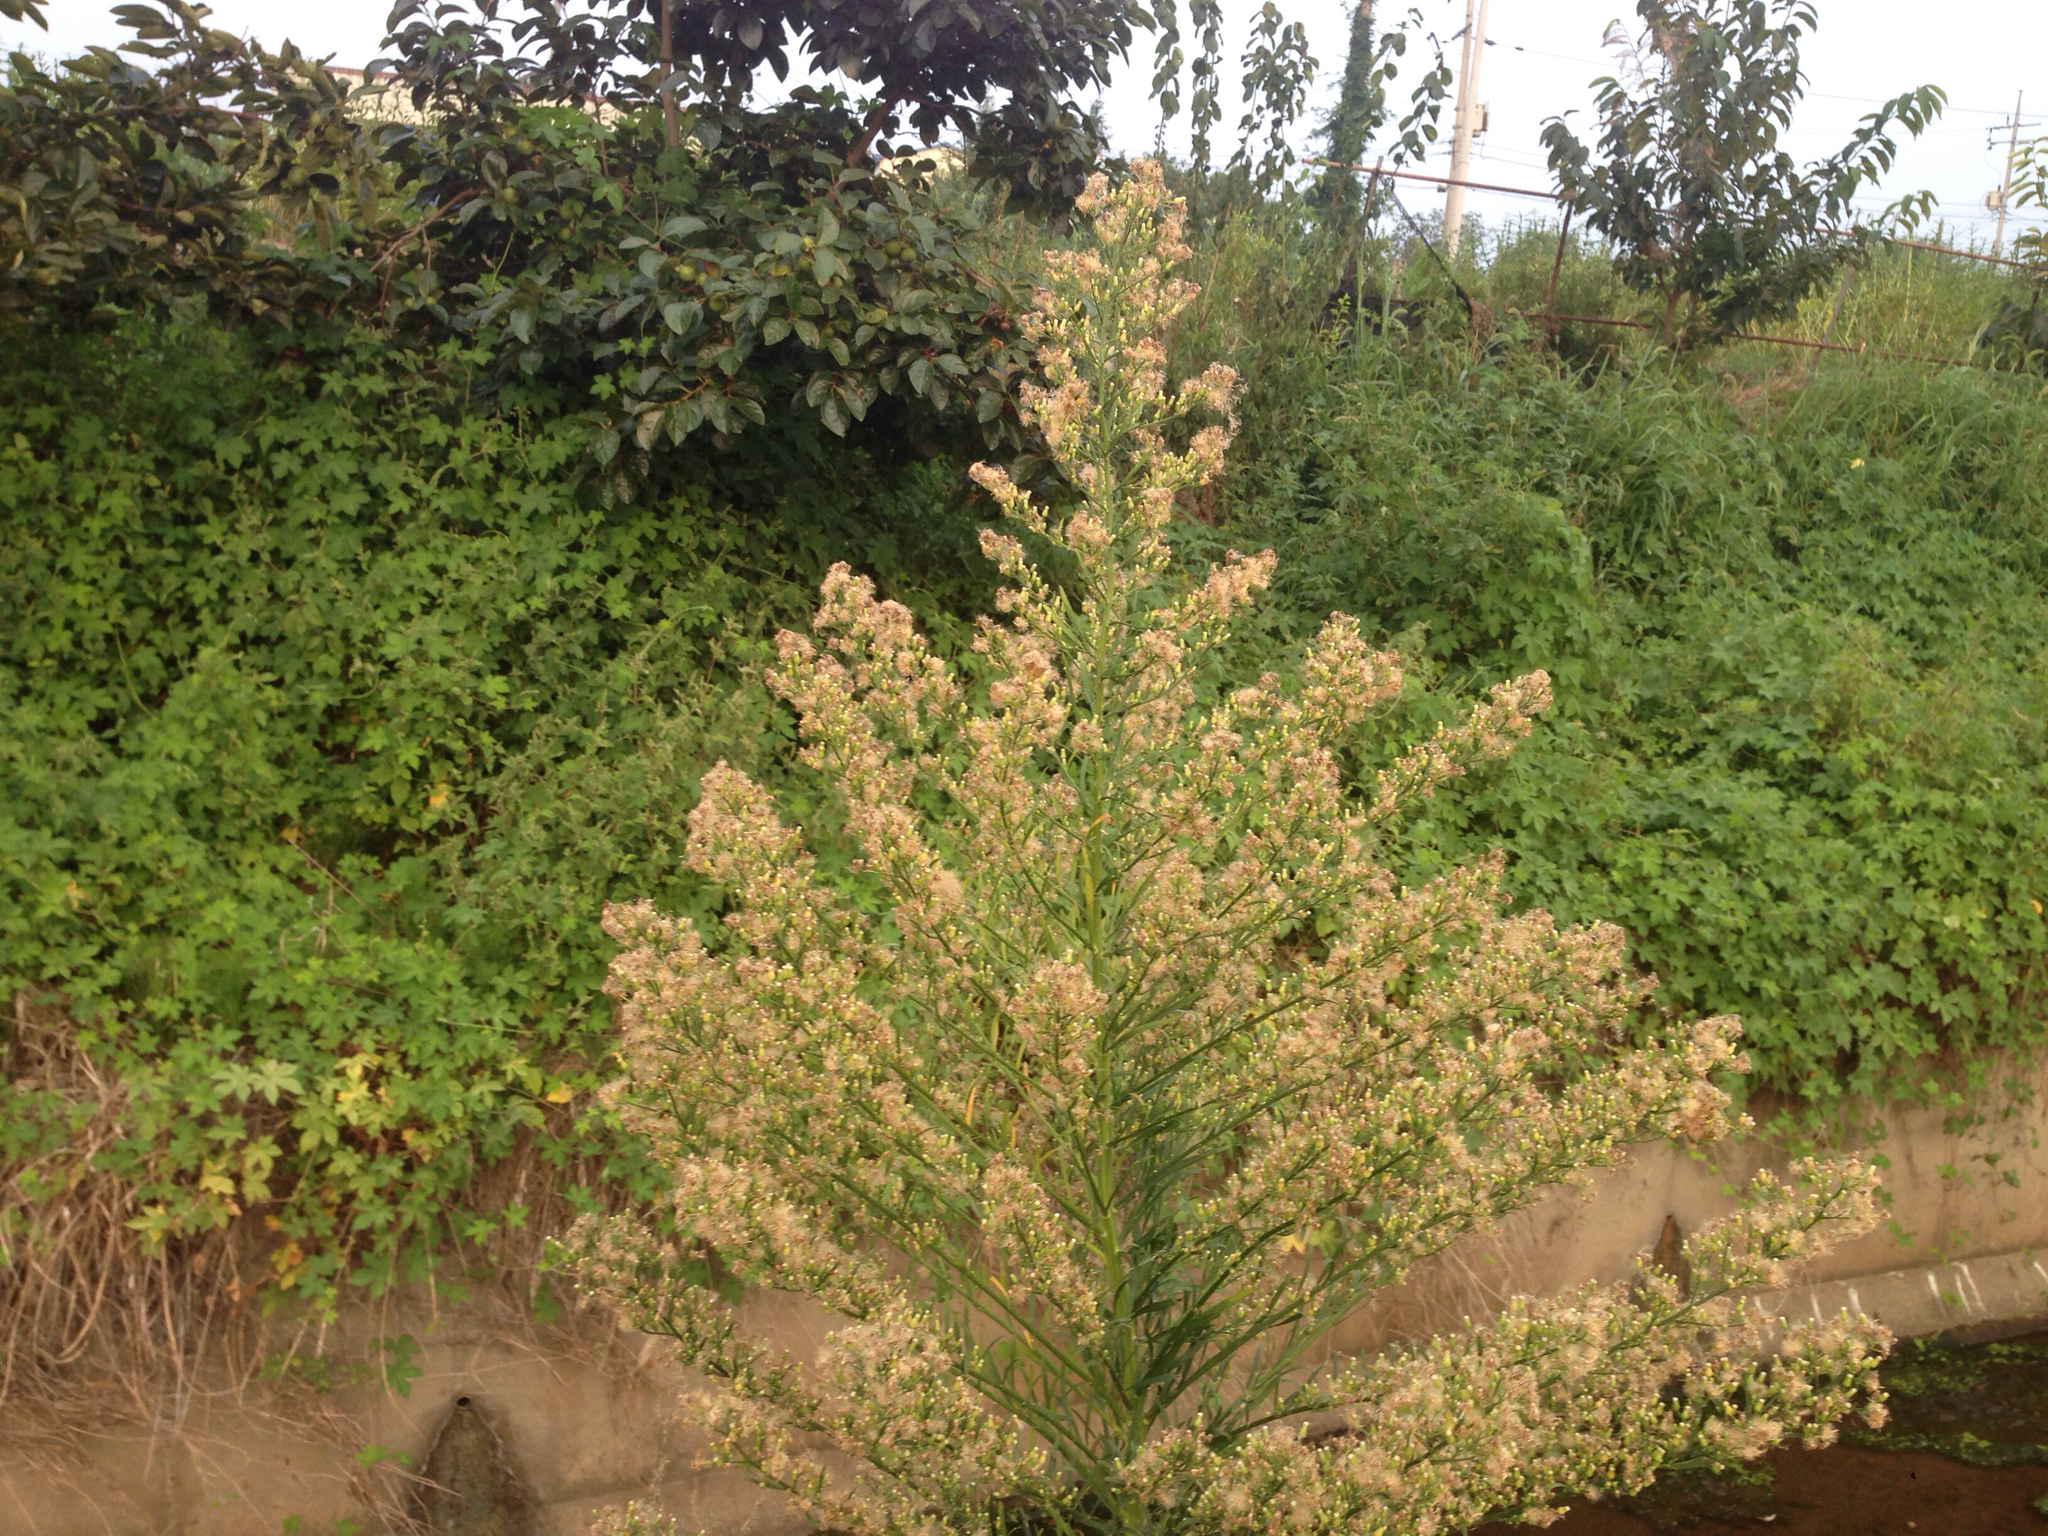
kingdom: Plantae
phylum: Tracheophyta
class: Magnoliopsida
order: Asterales
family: Asteraceae
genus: Erigeron
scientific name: Erigeron canadensis
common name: Canadian fleabane
